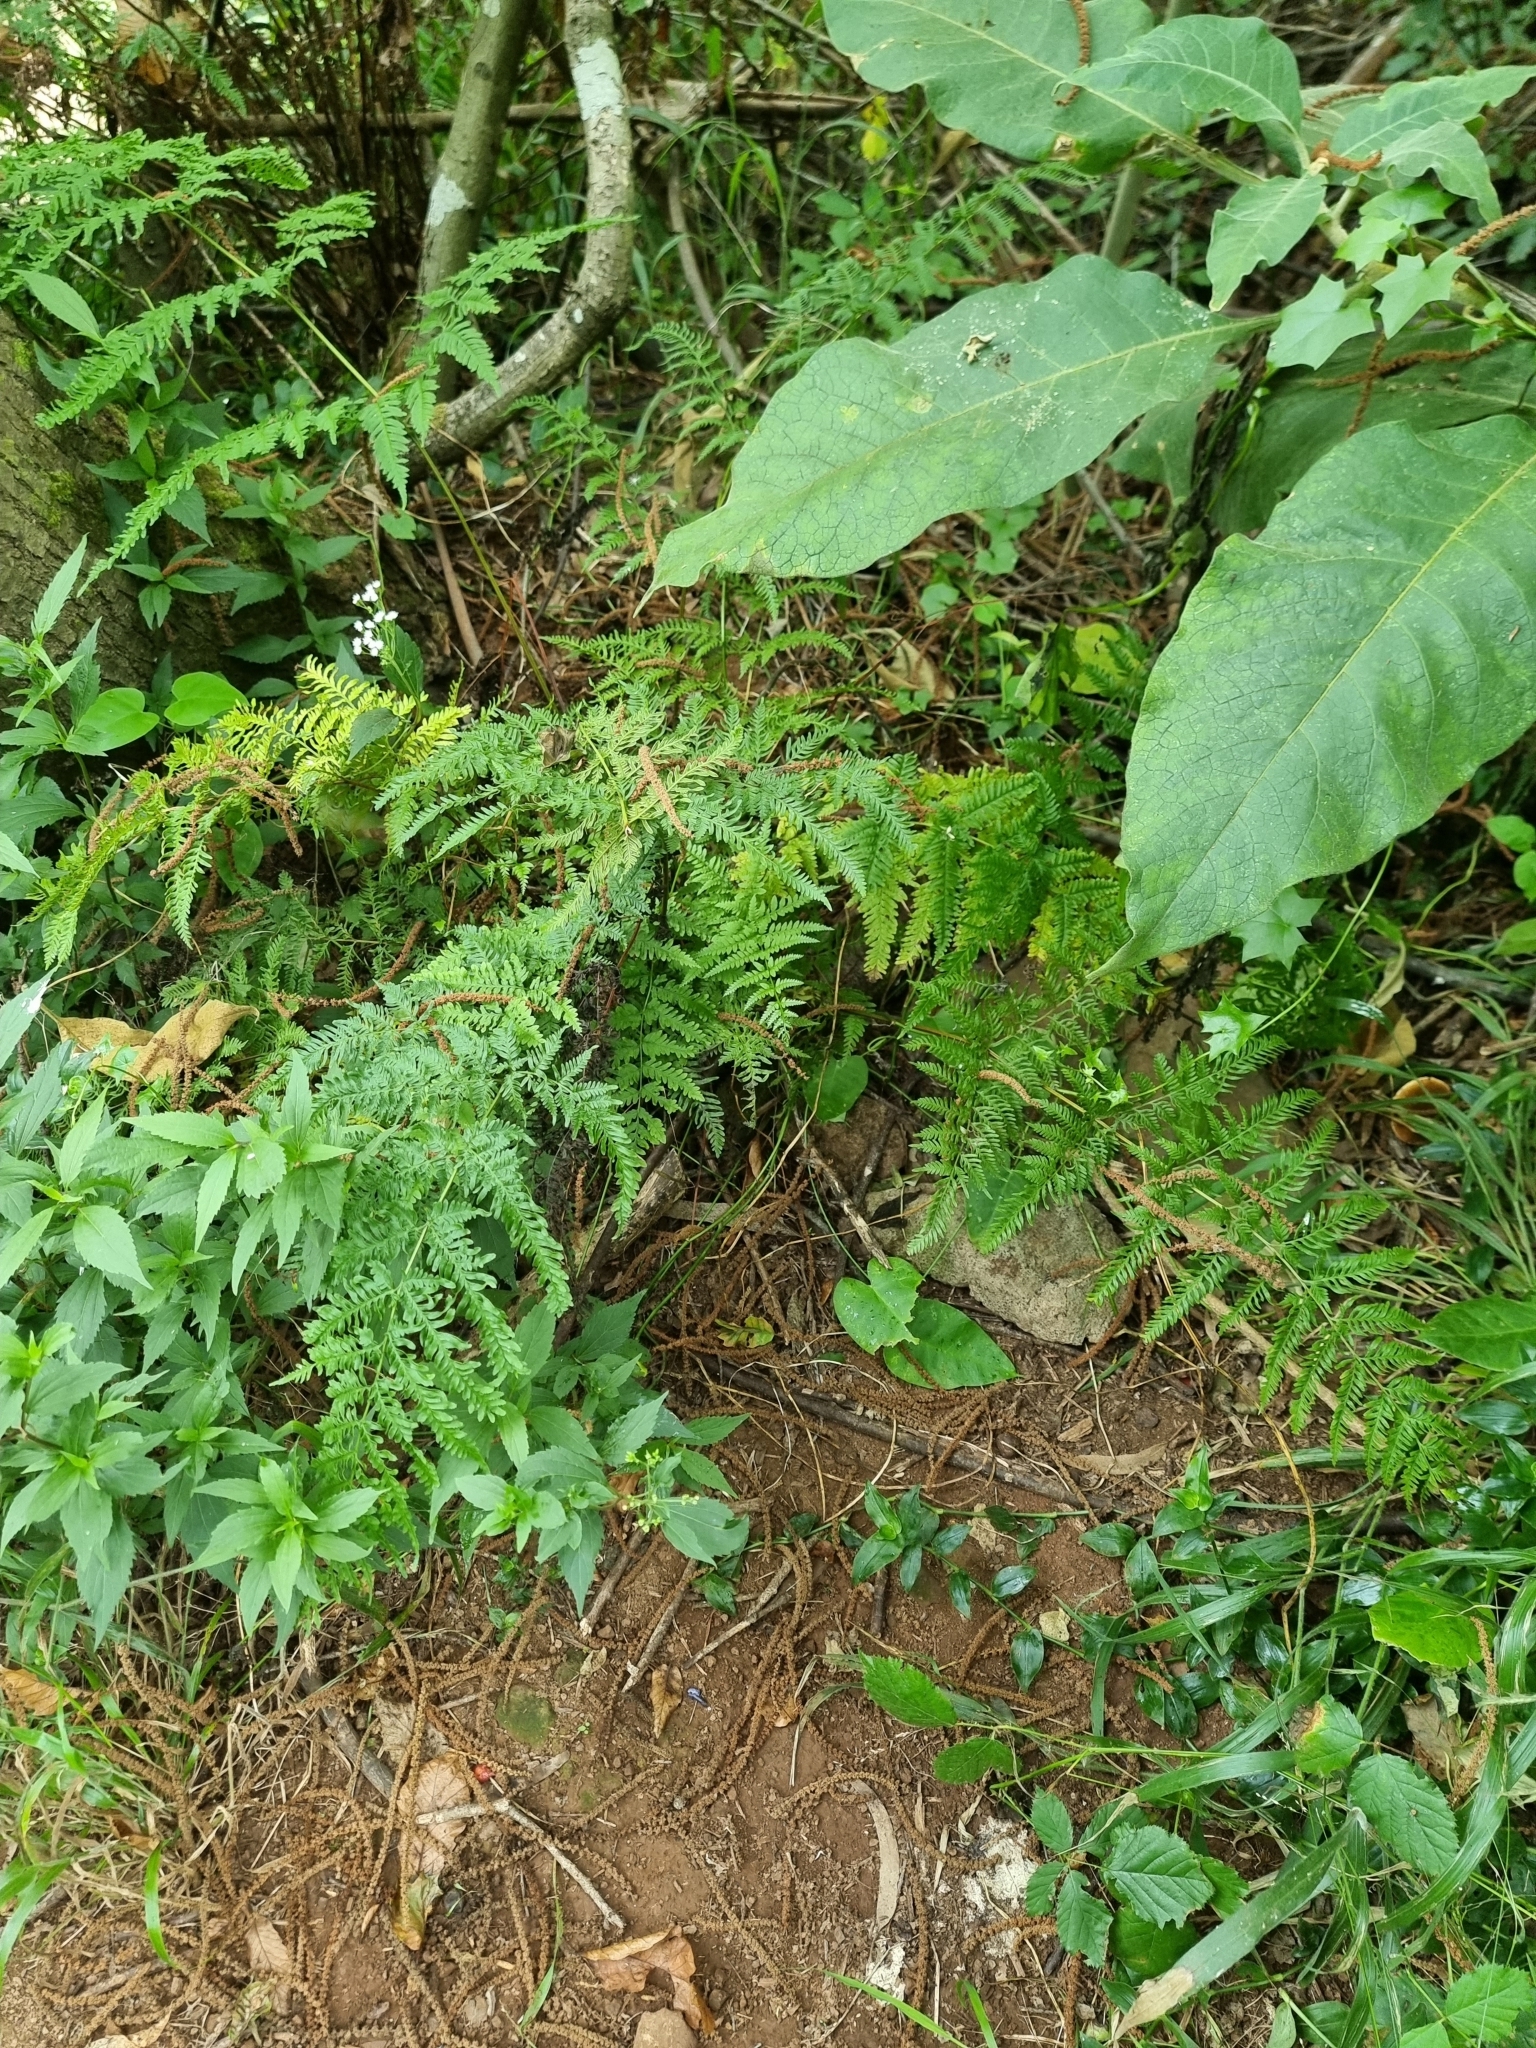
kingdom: Plantae
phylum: Tracheophyta
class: Polypodiopsida
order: Polypodiales
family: Pteridaceae
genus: Pteris
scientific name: Pteris tremula
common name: Australian brake
